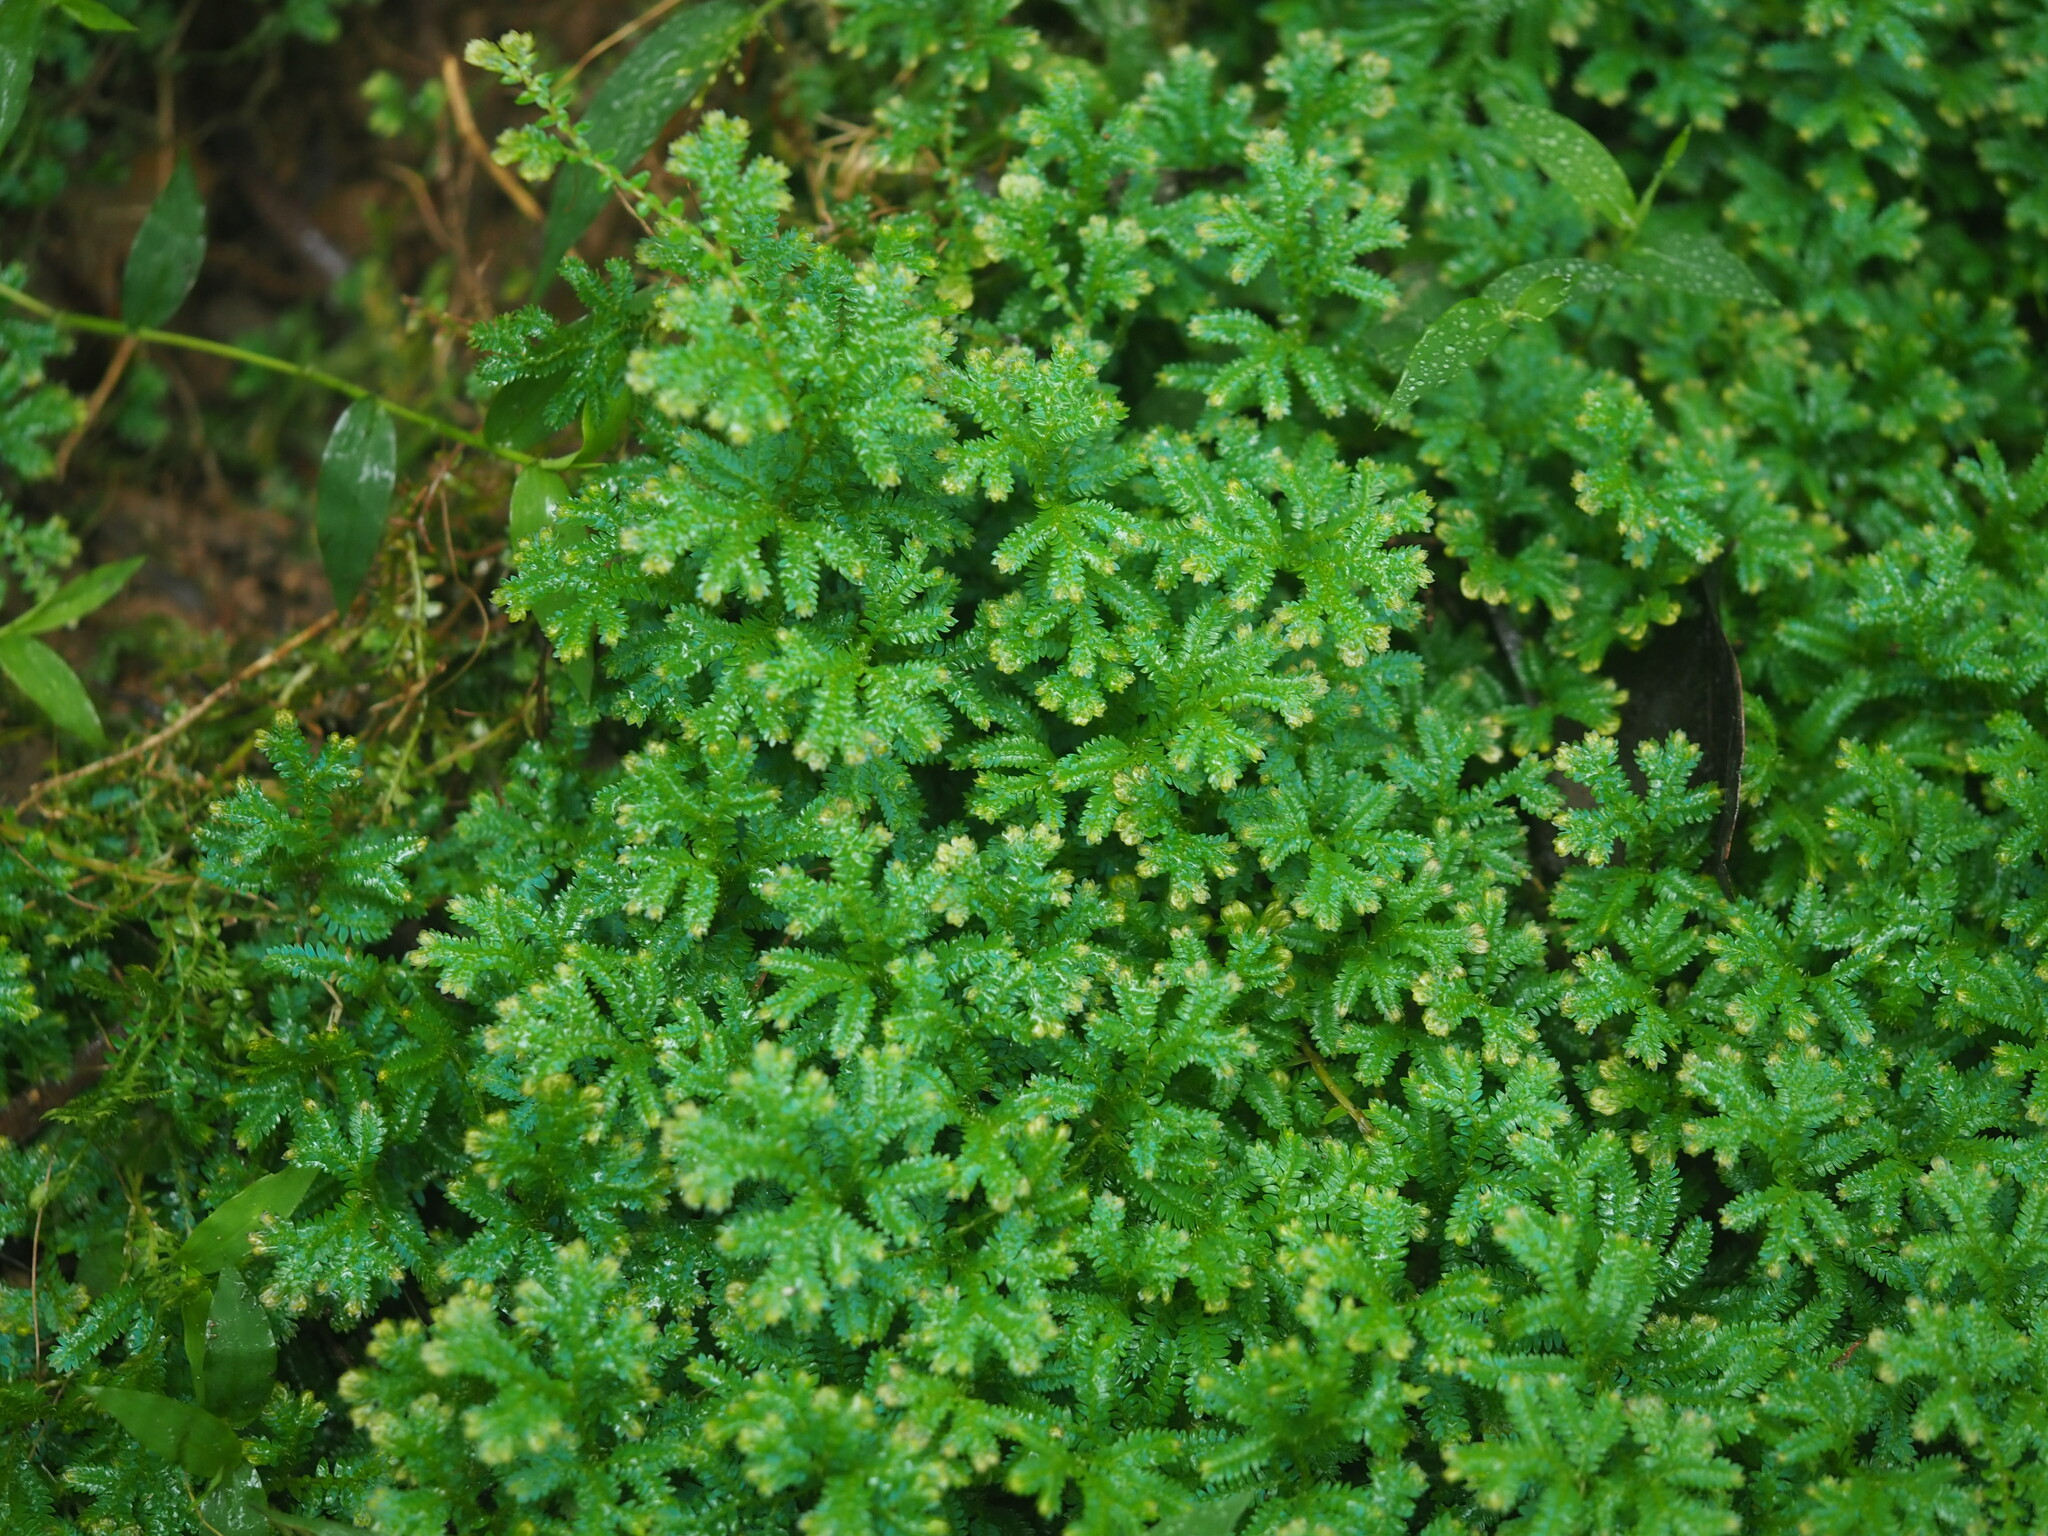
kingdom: Plantae
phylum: Tracheophyta
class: Lycopodiopsida
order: Selaginellales
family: Selaginellaceae
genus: Selaginella
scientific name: Selaginella uncinata
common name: Blue spikemoss
